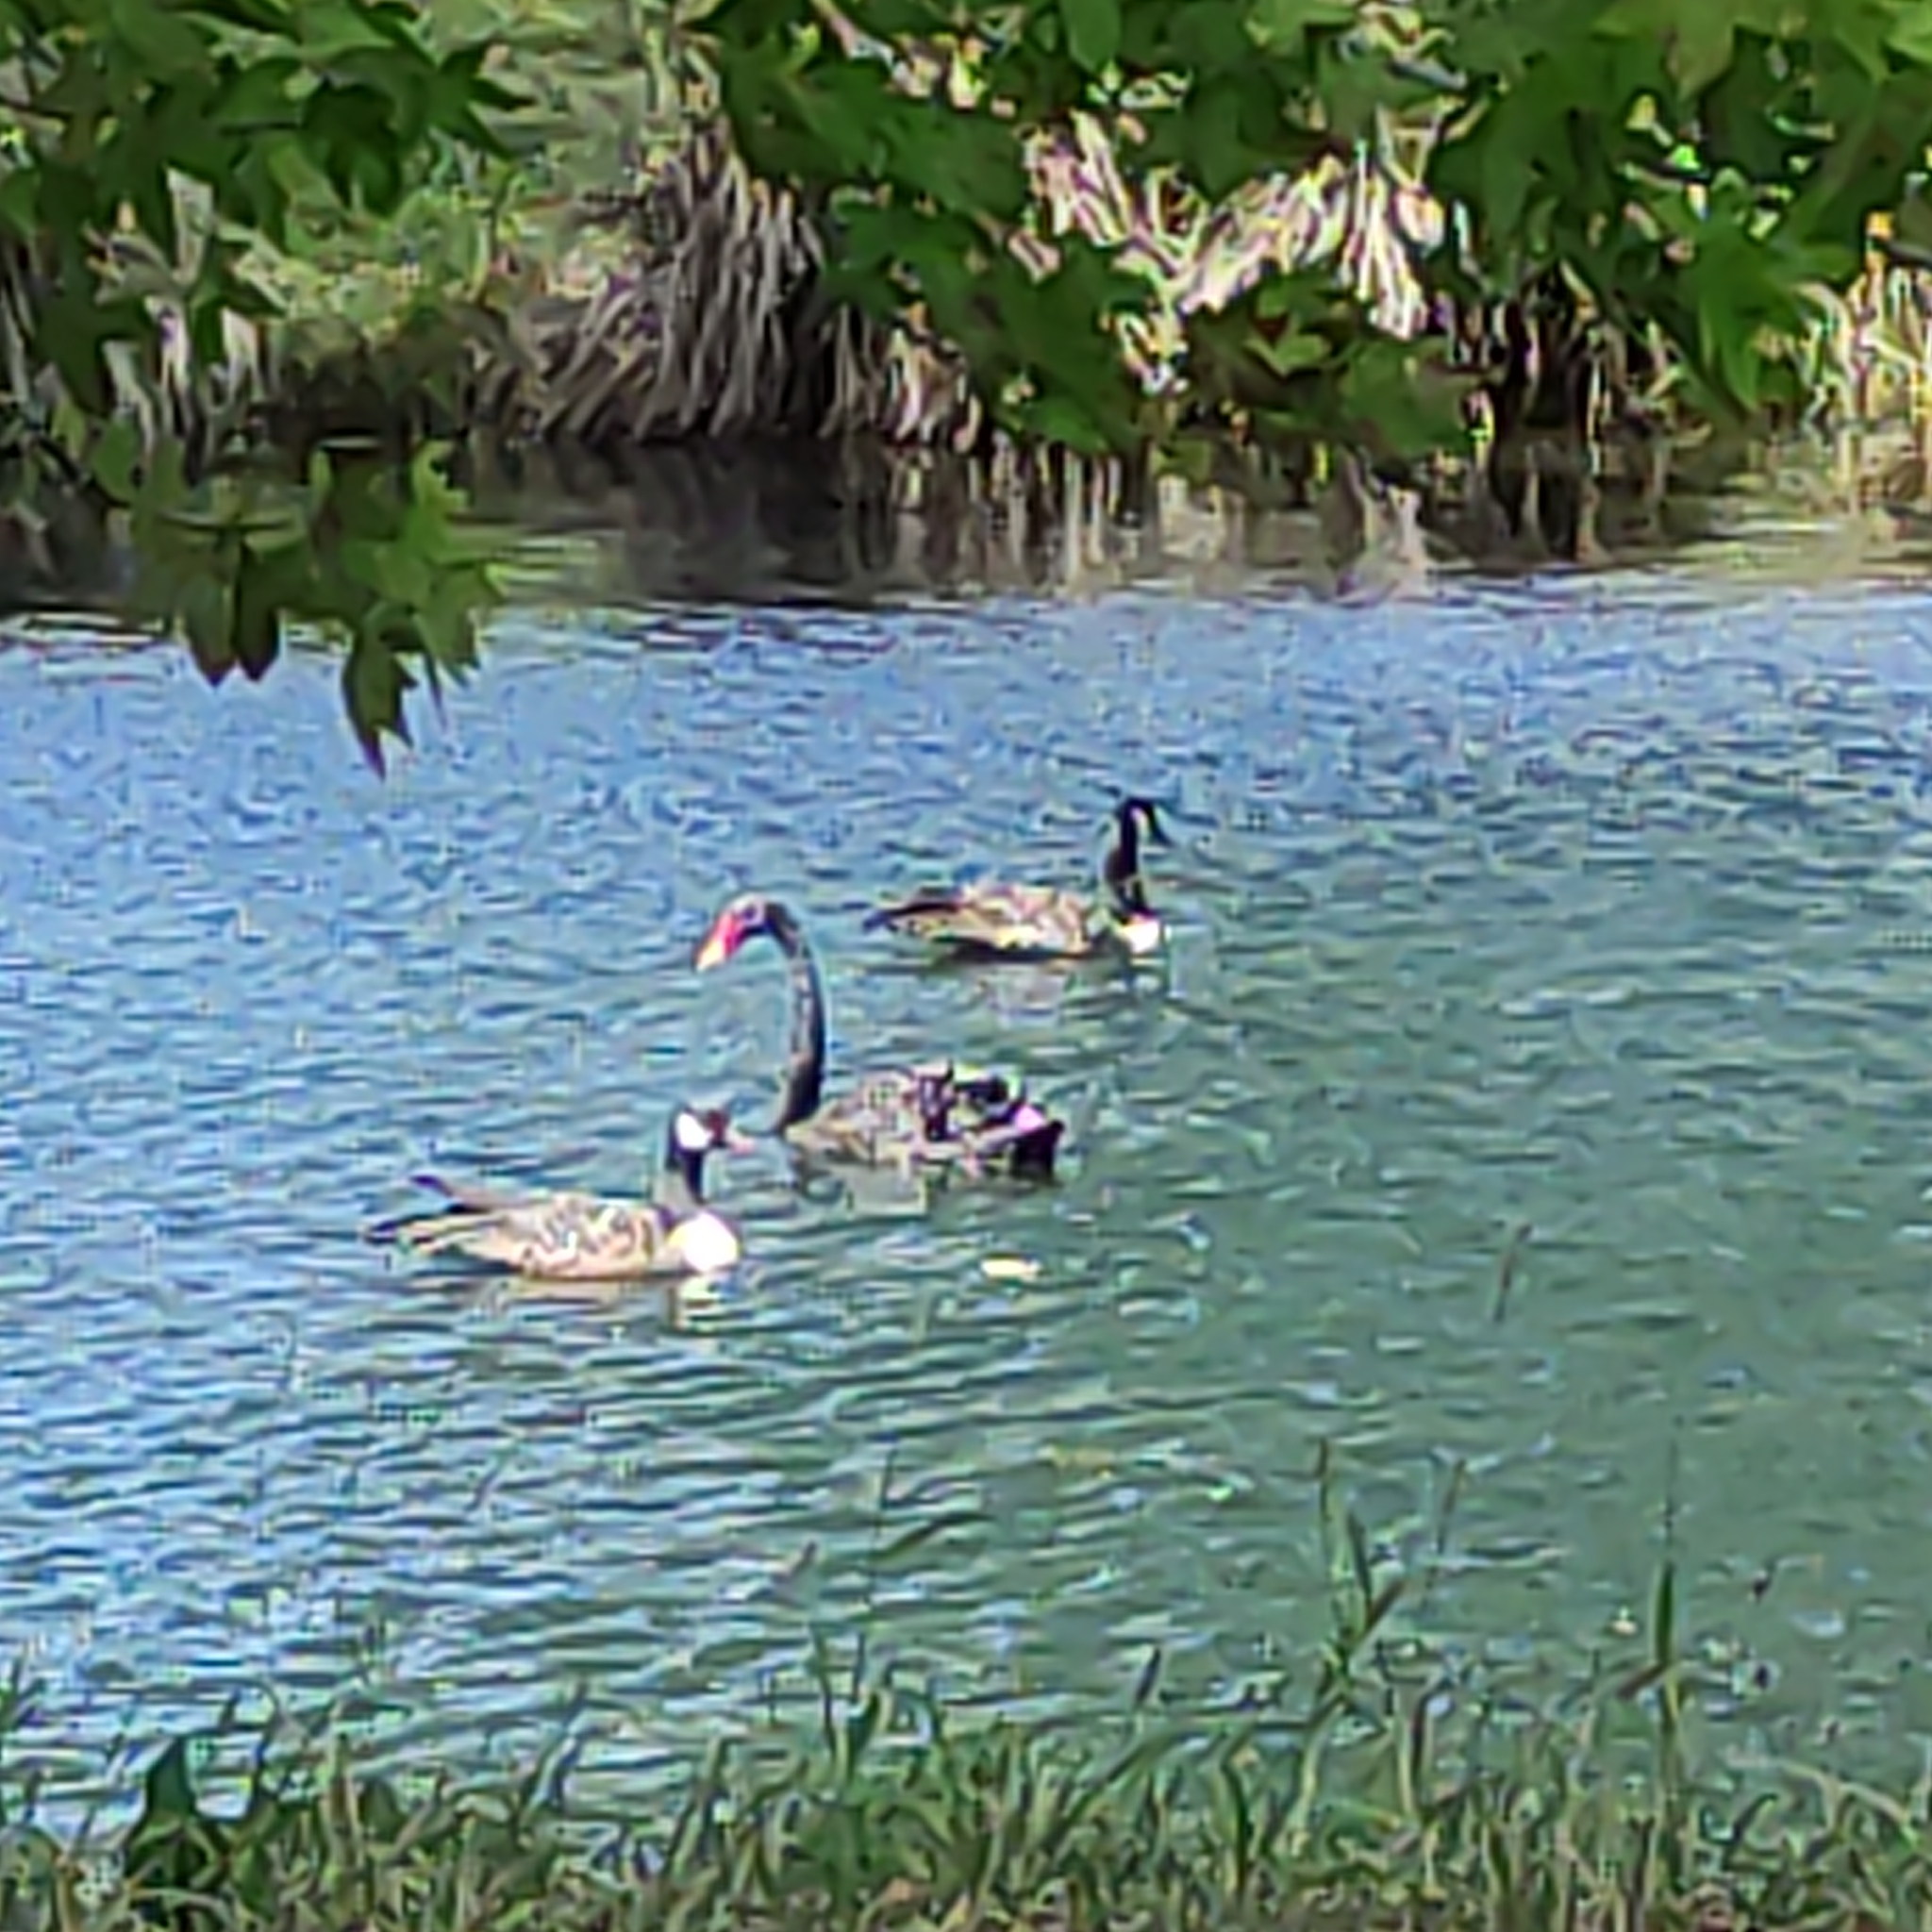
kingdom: Animalia
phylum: Chordata
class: Aves
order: Anseriformes
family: Anatidae
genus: Cygnus
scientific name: Cygnus atratus
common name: Black swan
